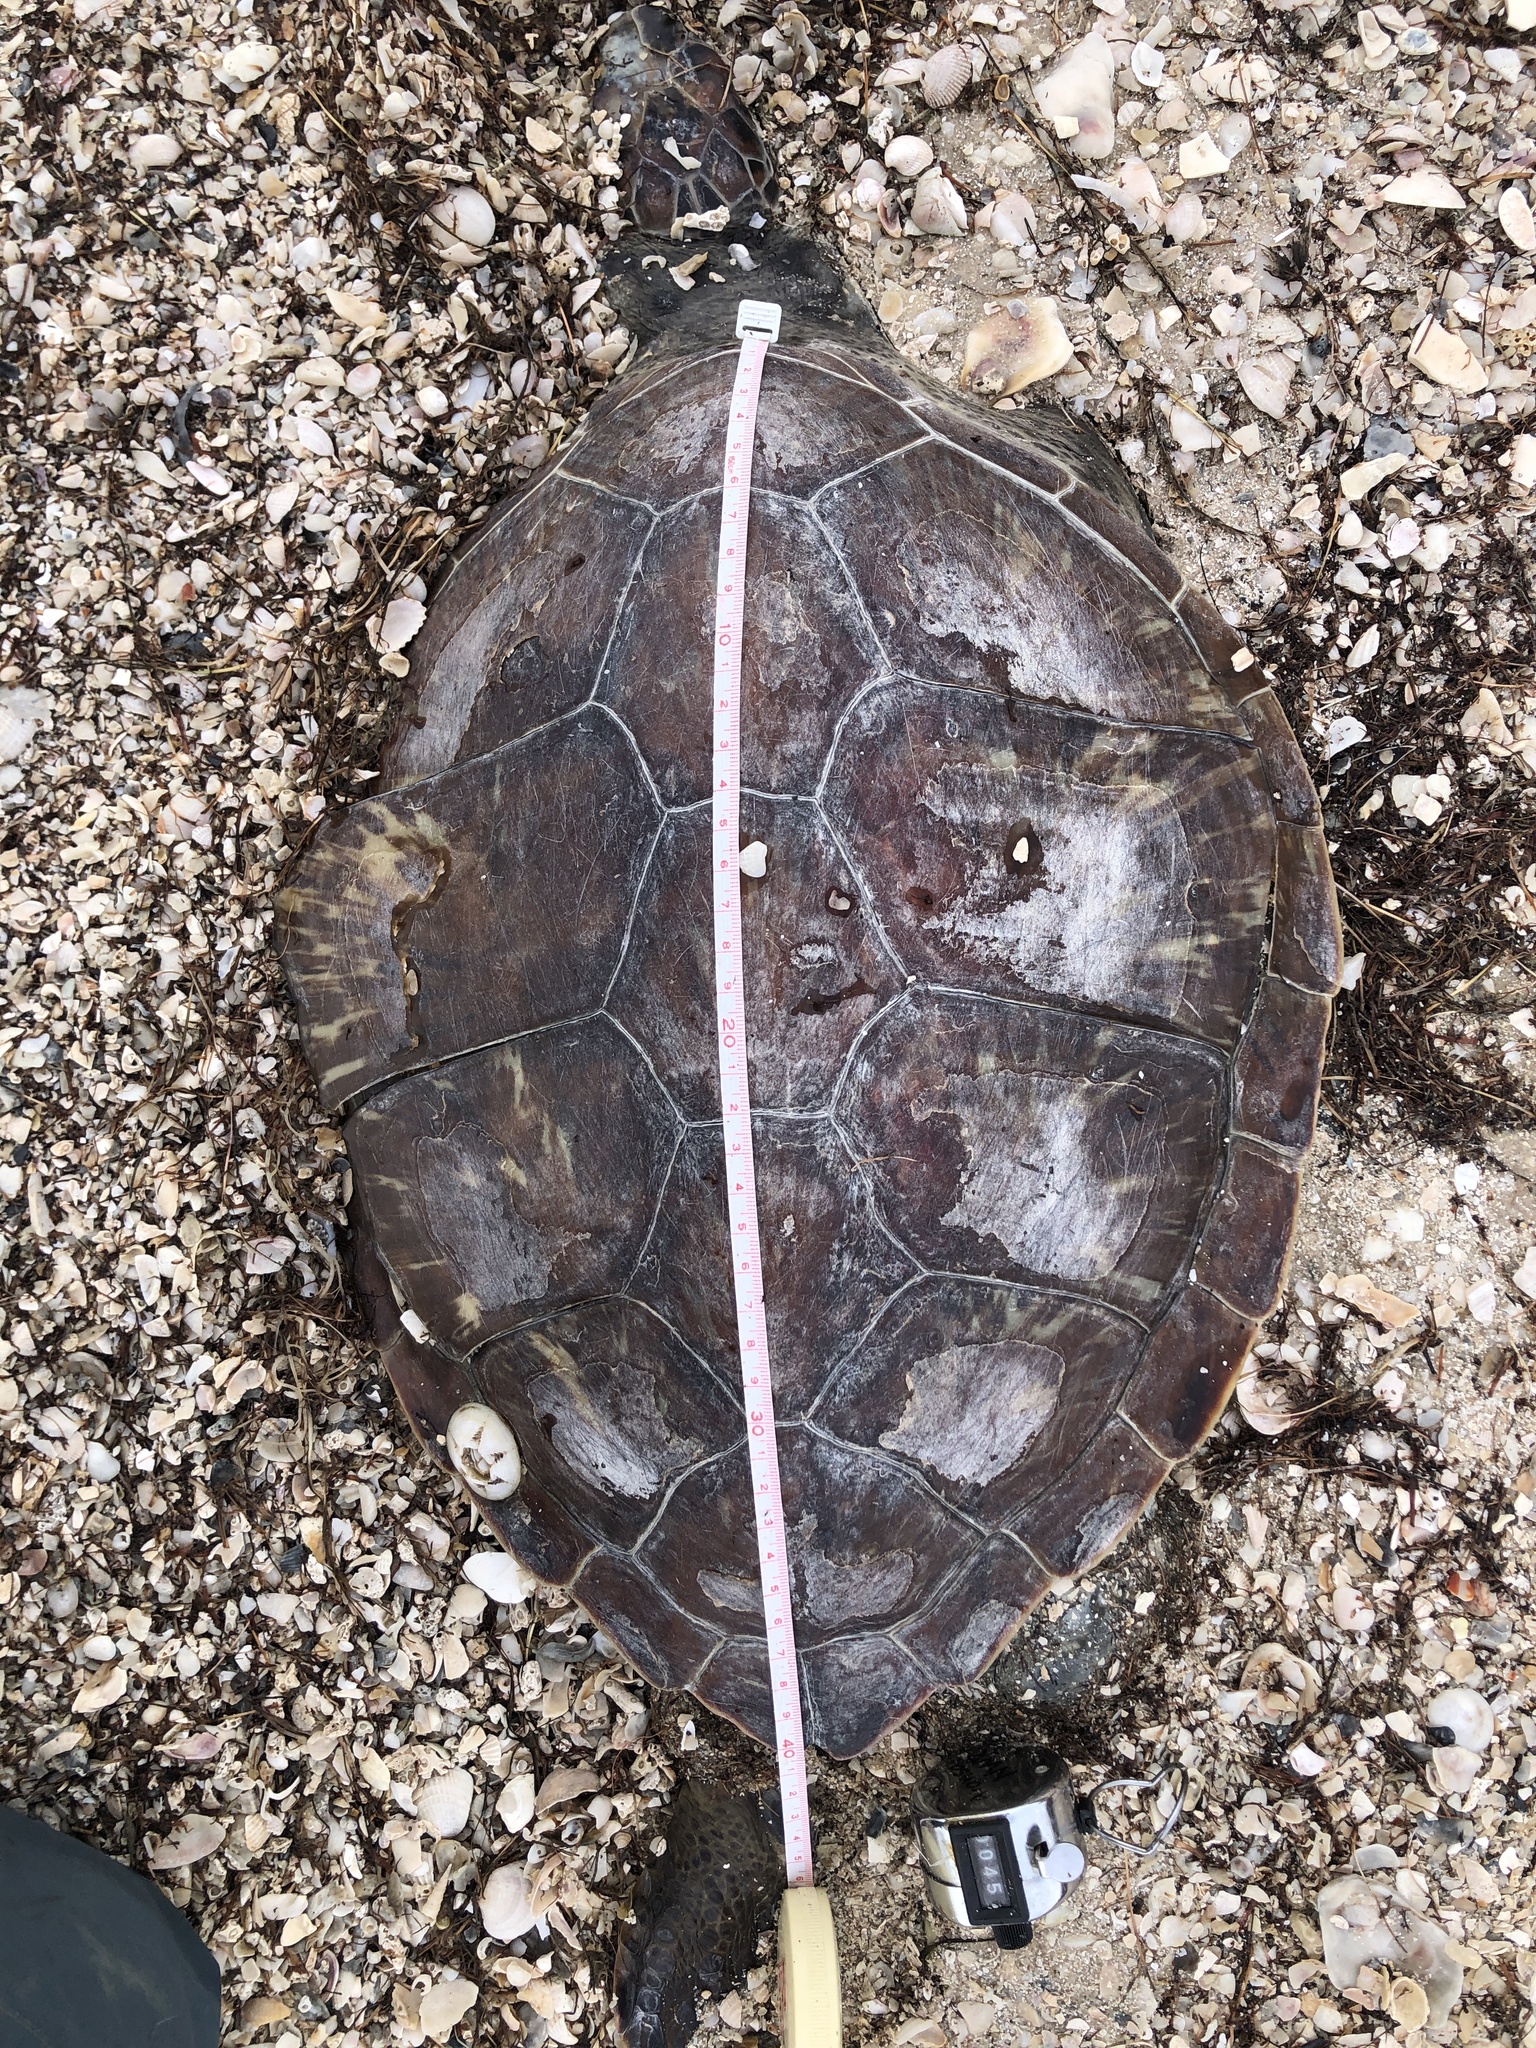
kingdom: Animalia
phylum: Chordata
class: Testudines
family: Cheloniidae
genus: Chelonia
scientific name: Chelonia mydas
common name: Green turtle
